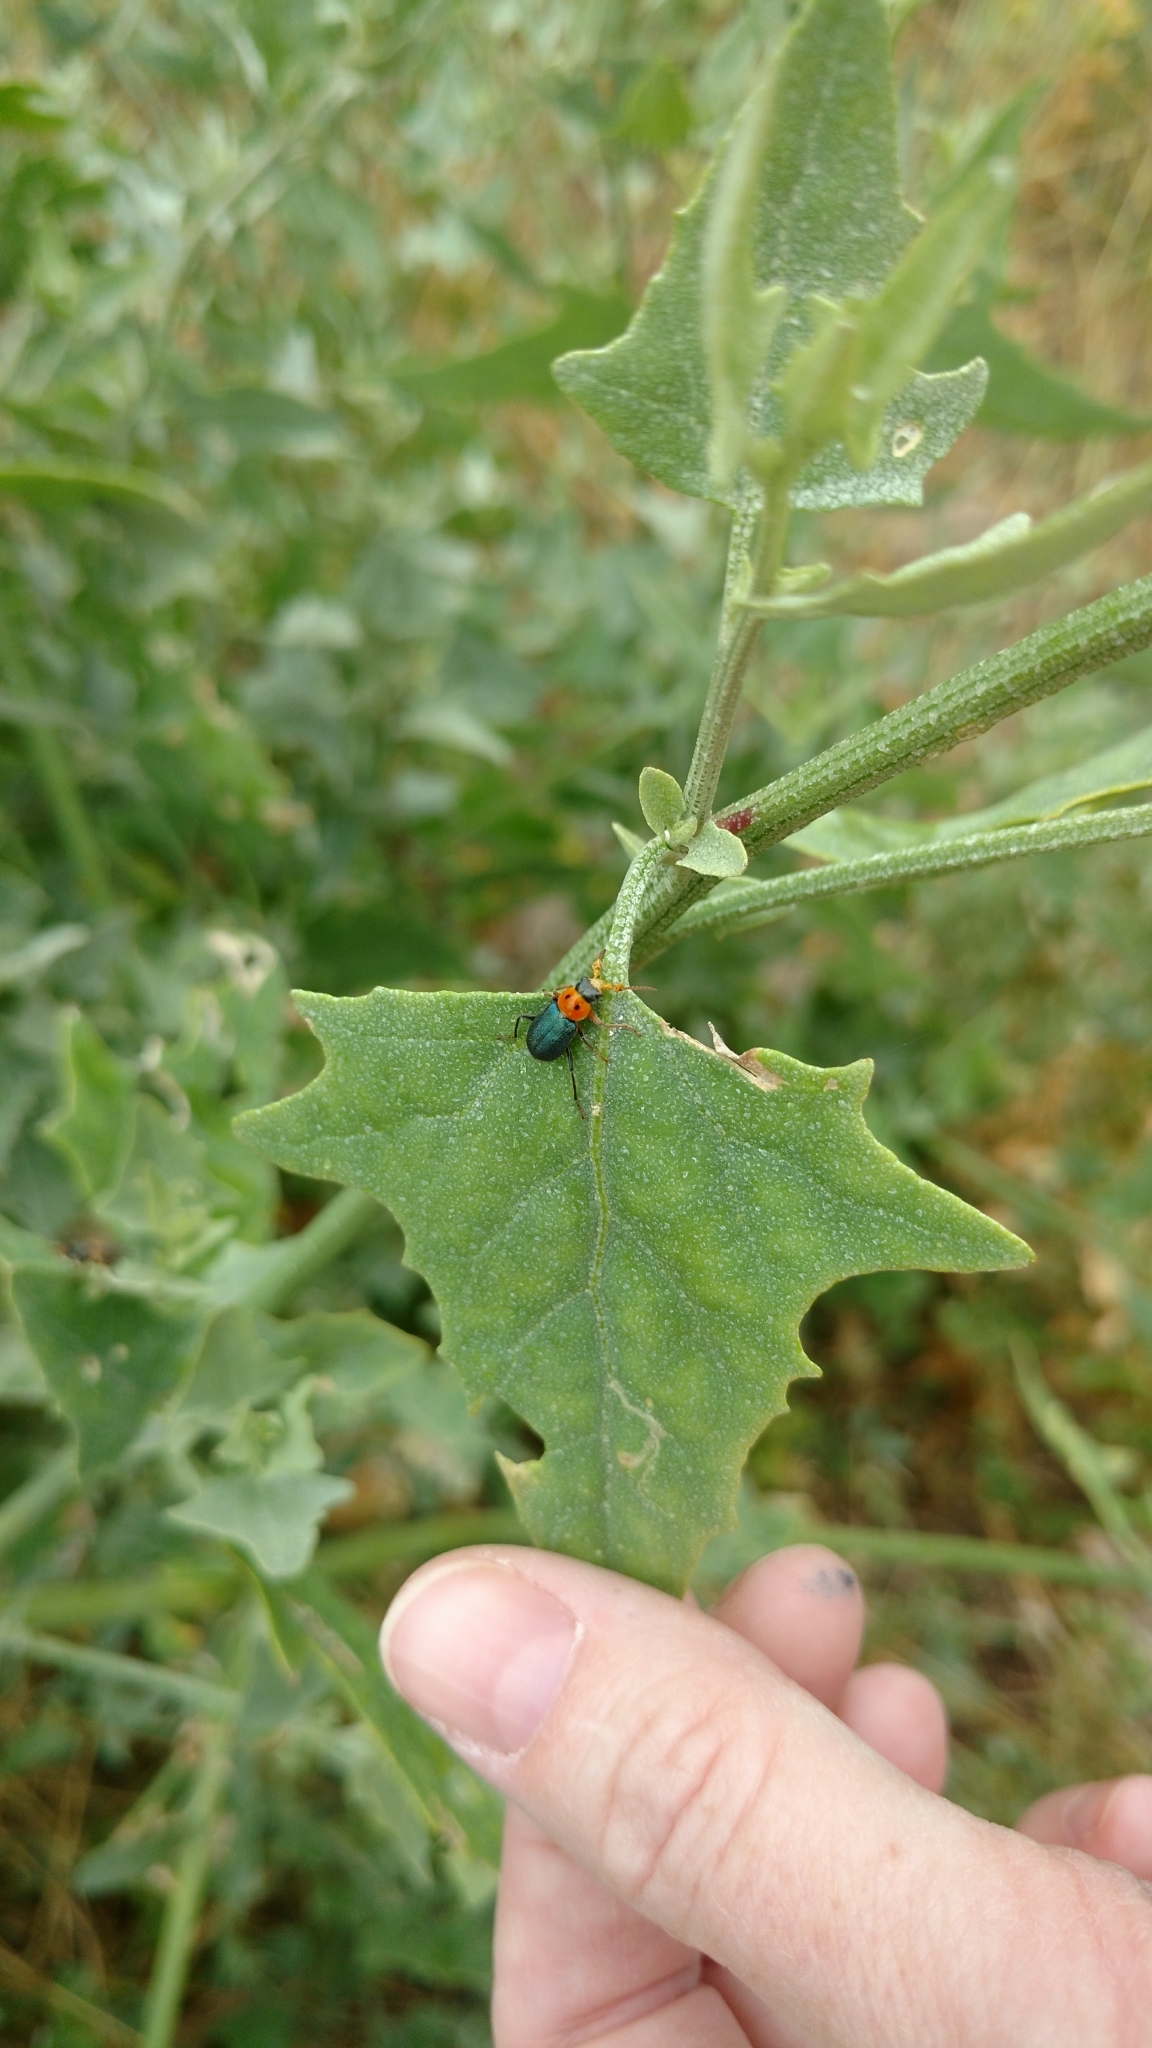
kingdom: Animalia
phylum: Arthropoda
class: Insecta
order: Coleoptera
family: Melyridae
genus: Collops
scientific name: Collops bipunctatus
